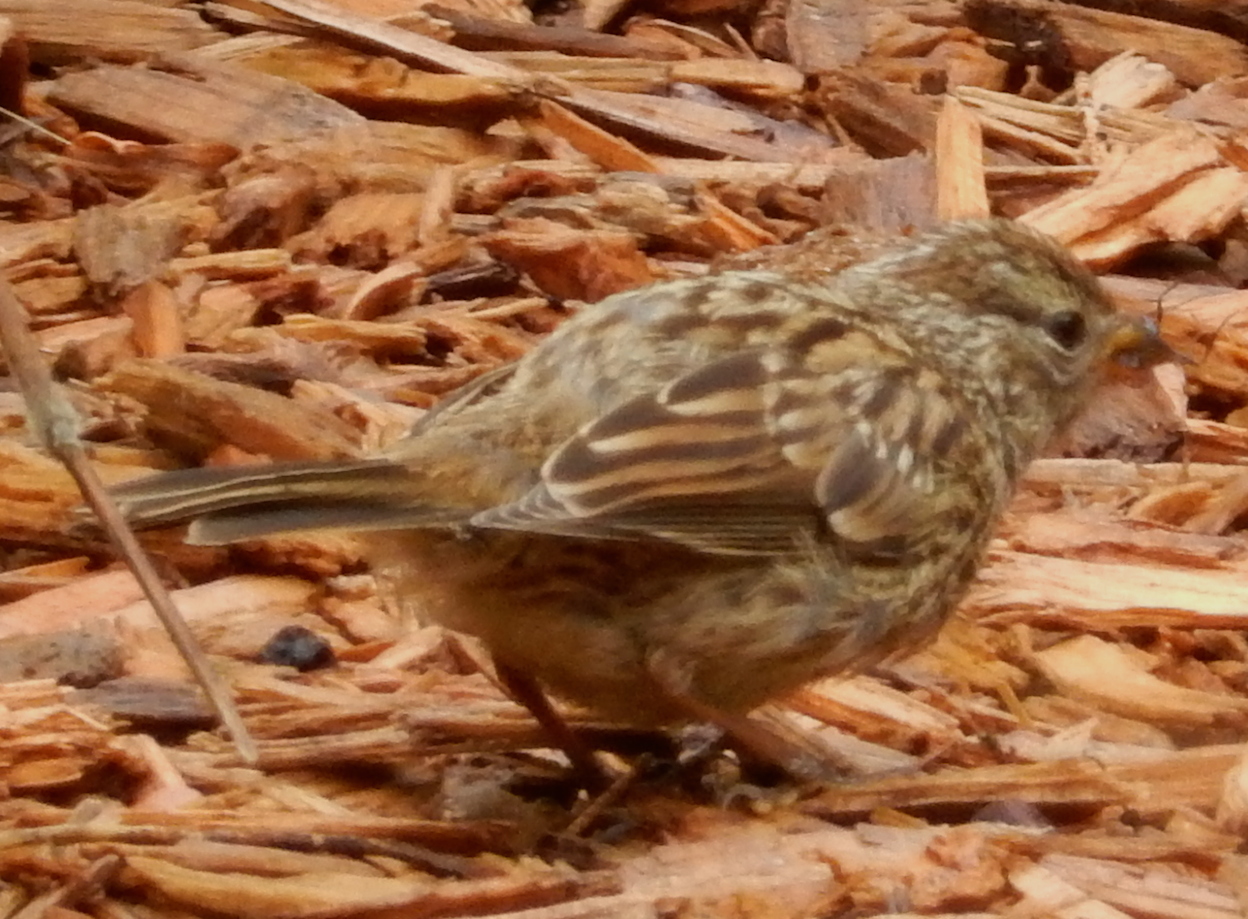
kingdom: Animalia
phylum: Chordata
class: Aves
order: Passeriformes
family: Passerellidae
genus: Zonotrichia
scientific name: Zonotrichia leucophrys
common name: White-crowned sparrow
